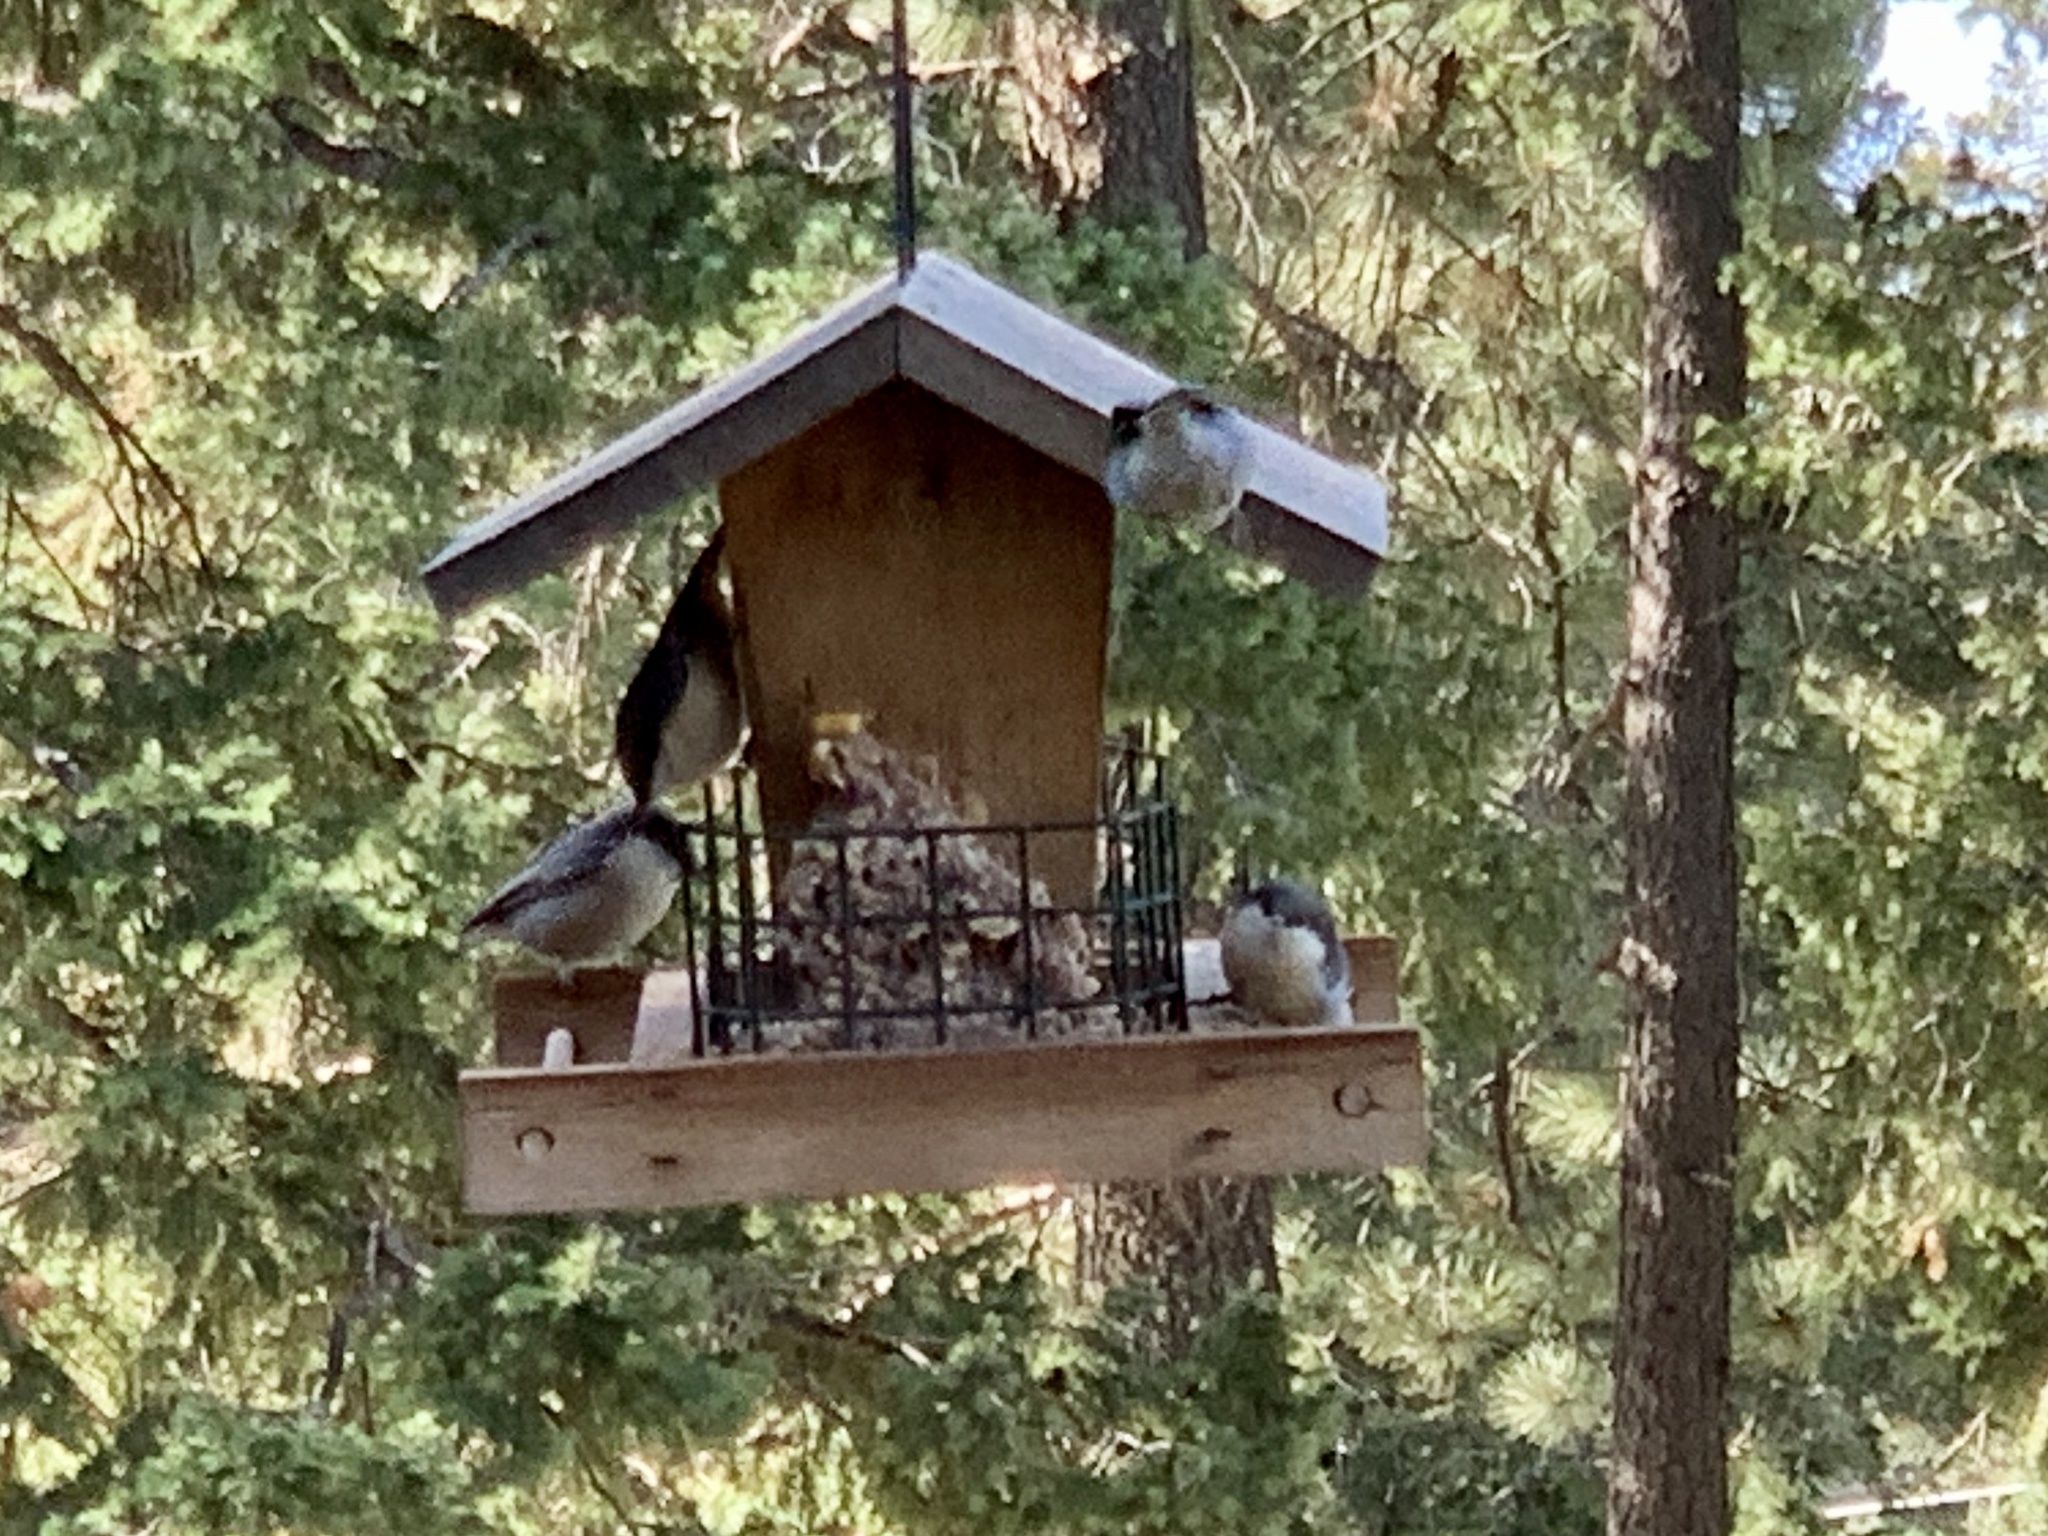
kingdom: Animalia
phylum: Chordata
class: Aves
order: Passeriformes
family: Sittidae
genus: Sitta
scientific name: Sitta pygmaea
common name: Pygmy nuthatch
